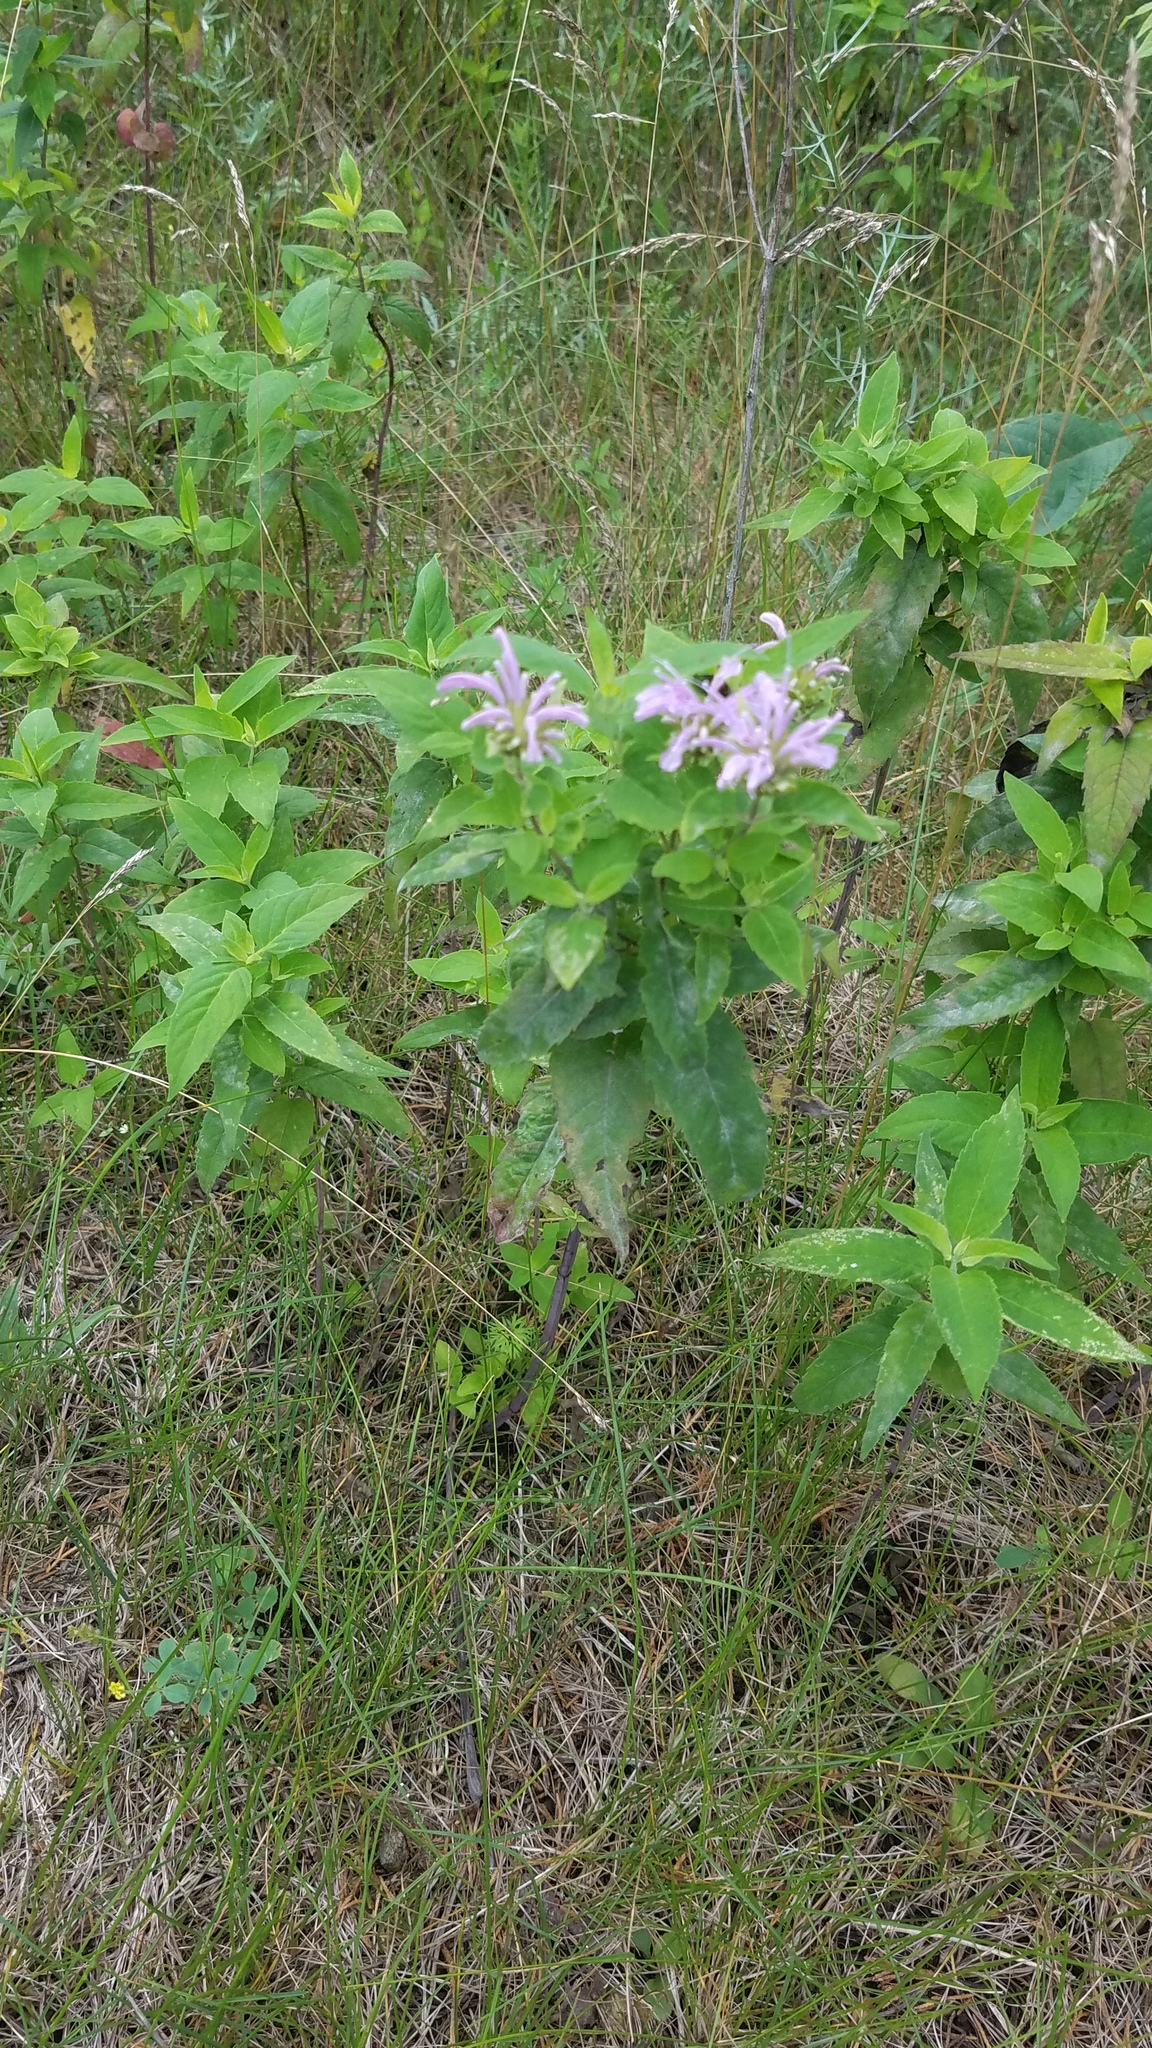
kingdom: Plantae
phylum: Tracheophyta
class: Magnoliopsida
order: Lamiales
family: Lamiaceae
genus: Monarda
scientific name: Monarda fistulosa
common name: Purple beebalm
